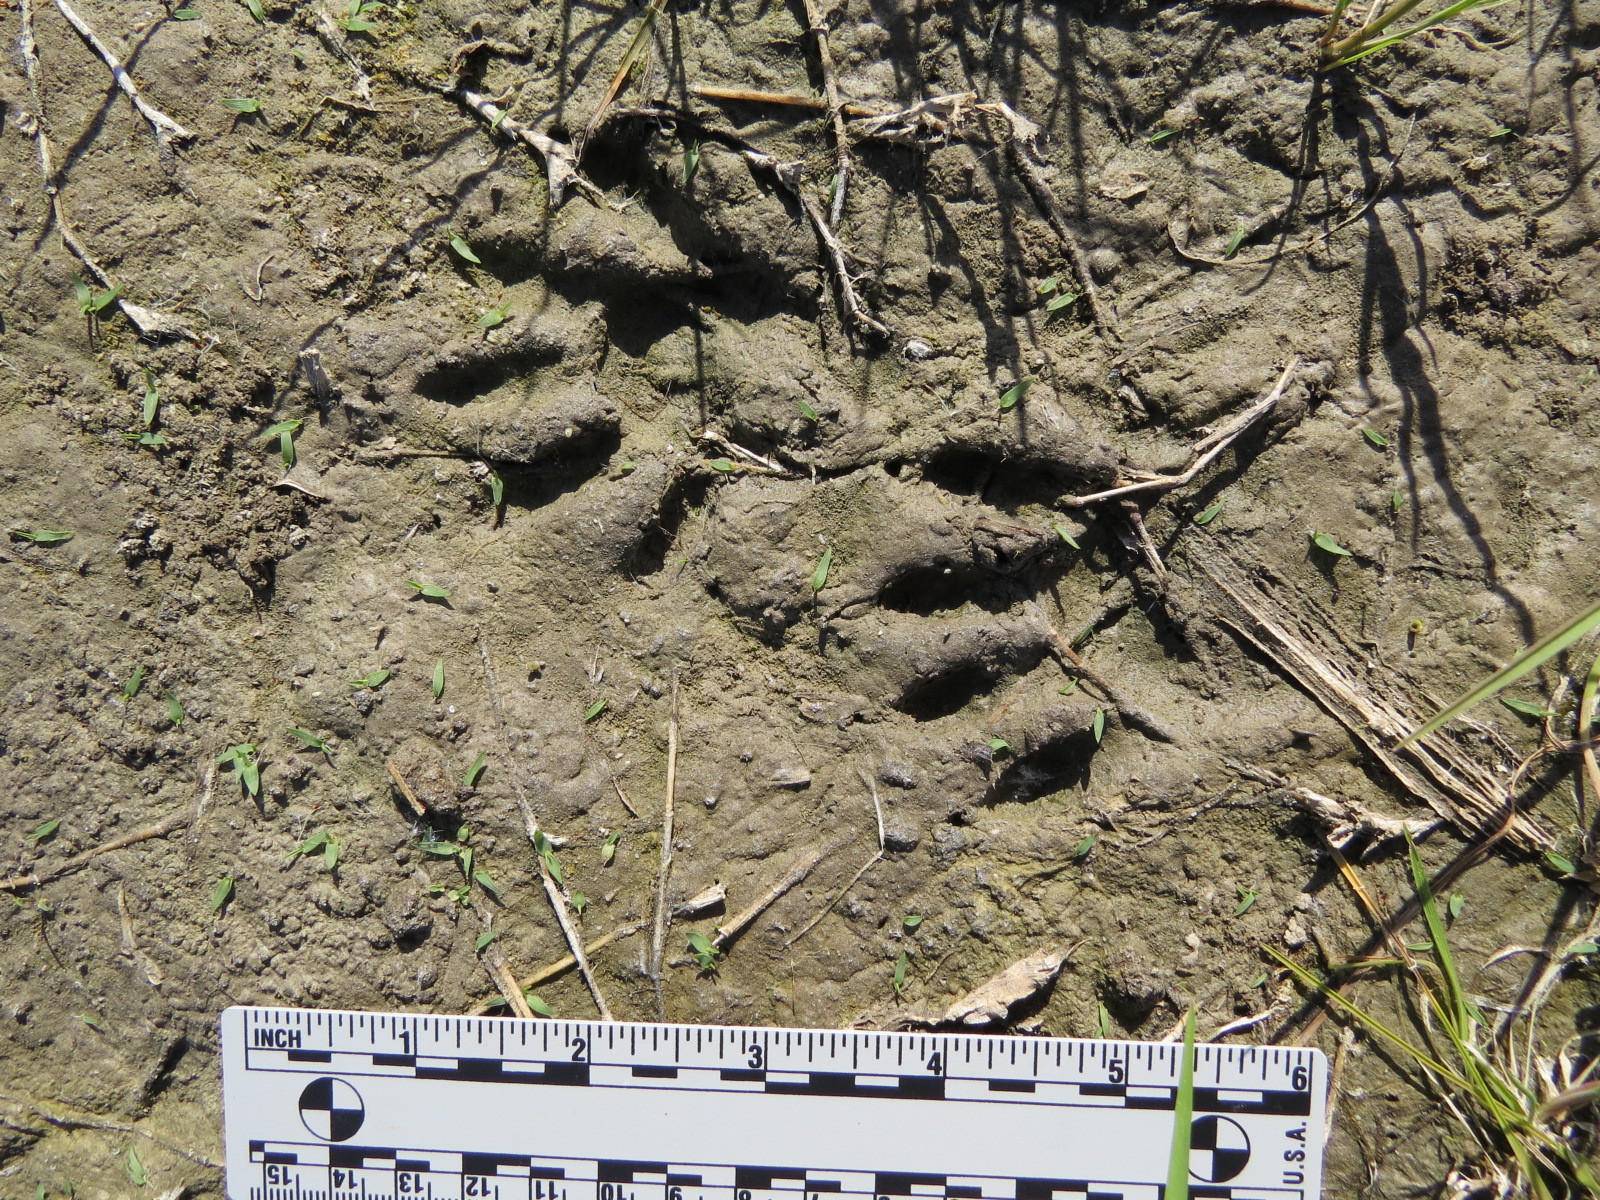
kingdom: Animalia
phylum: Chordata
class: Mammalia
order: Carnivora
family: Procyonidae
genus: Procyon
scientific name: Procyon lotor
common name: Raccoon
